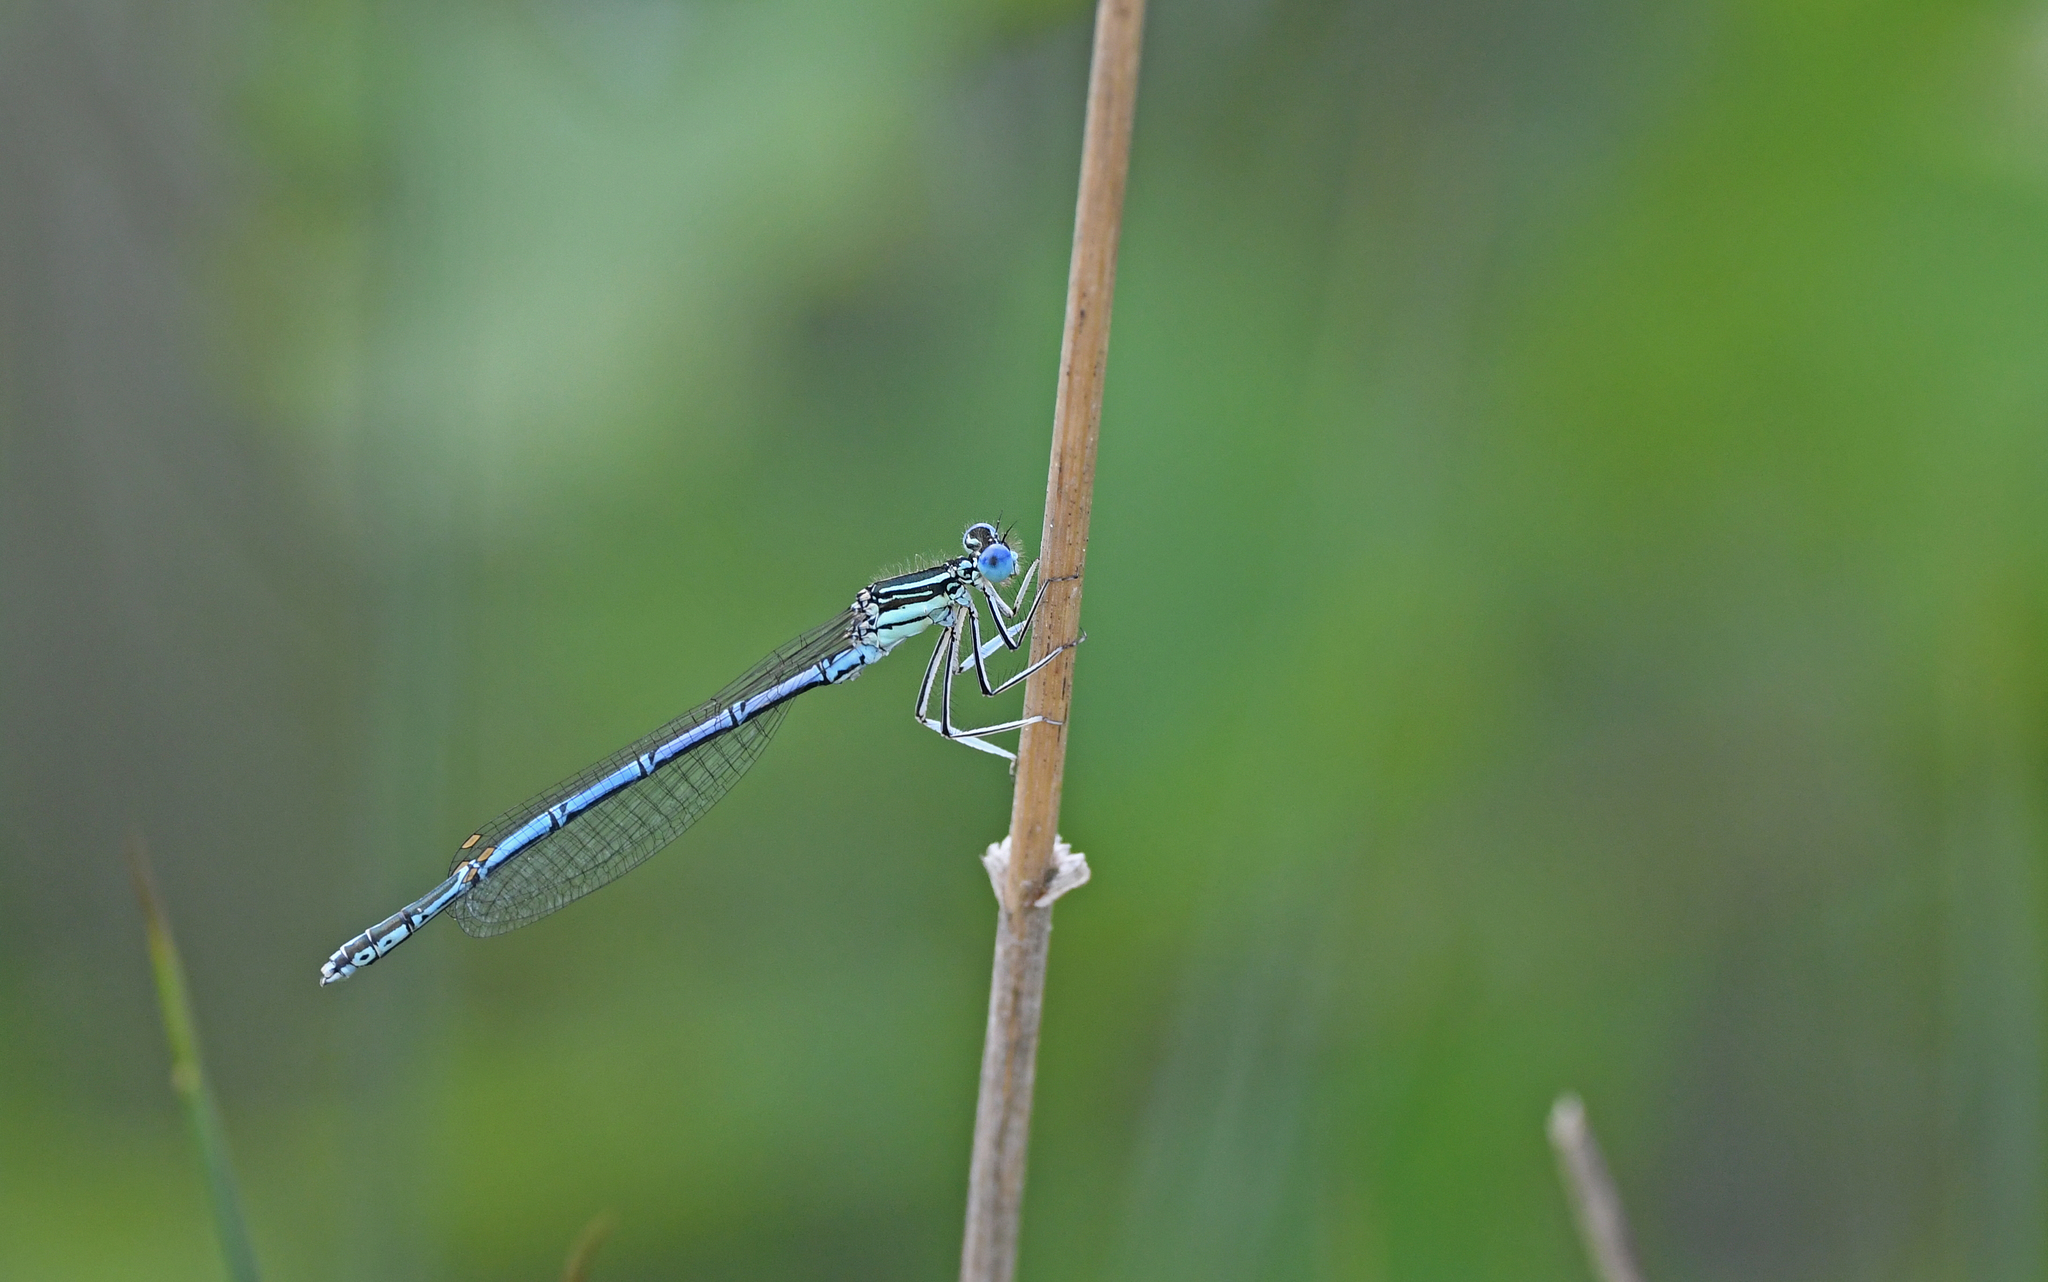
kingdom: Animalia
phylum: Arthropoda
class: Insecta
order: Odonata
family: Platycnemididae
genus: Platycnemis
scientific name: Platycnemis pennipes
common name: White-legged damselfly
